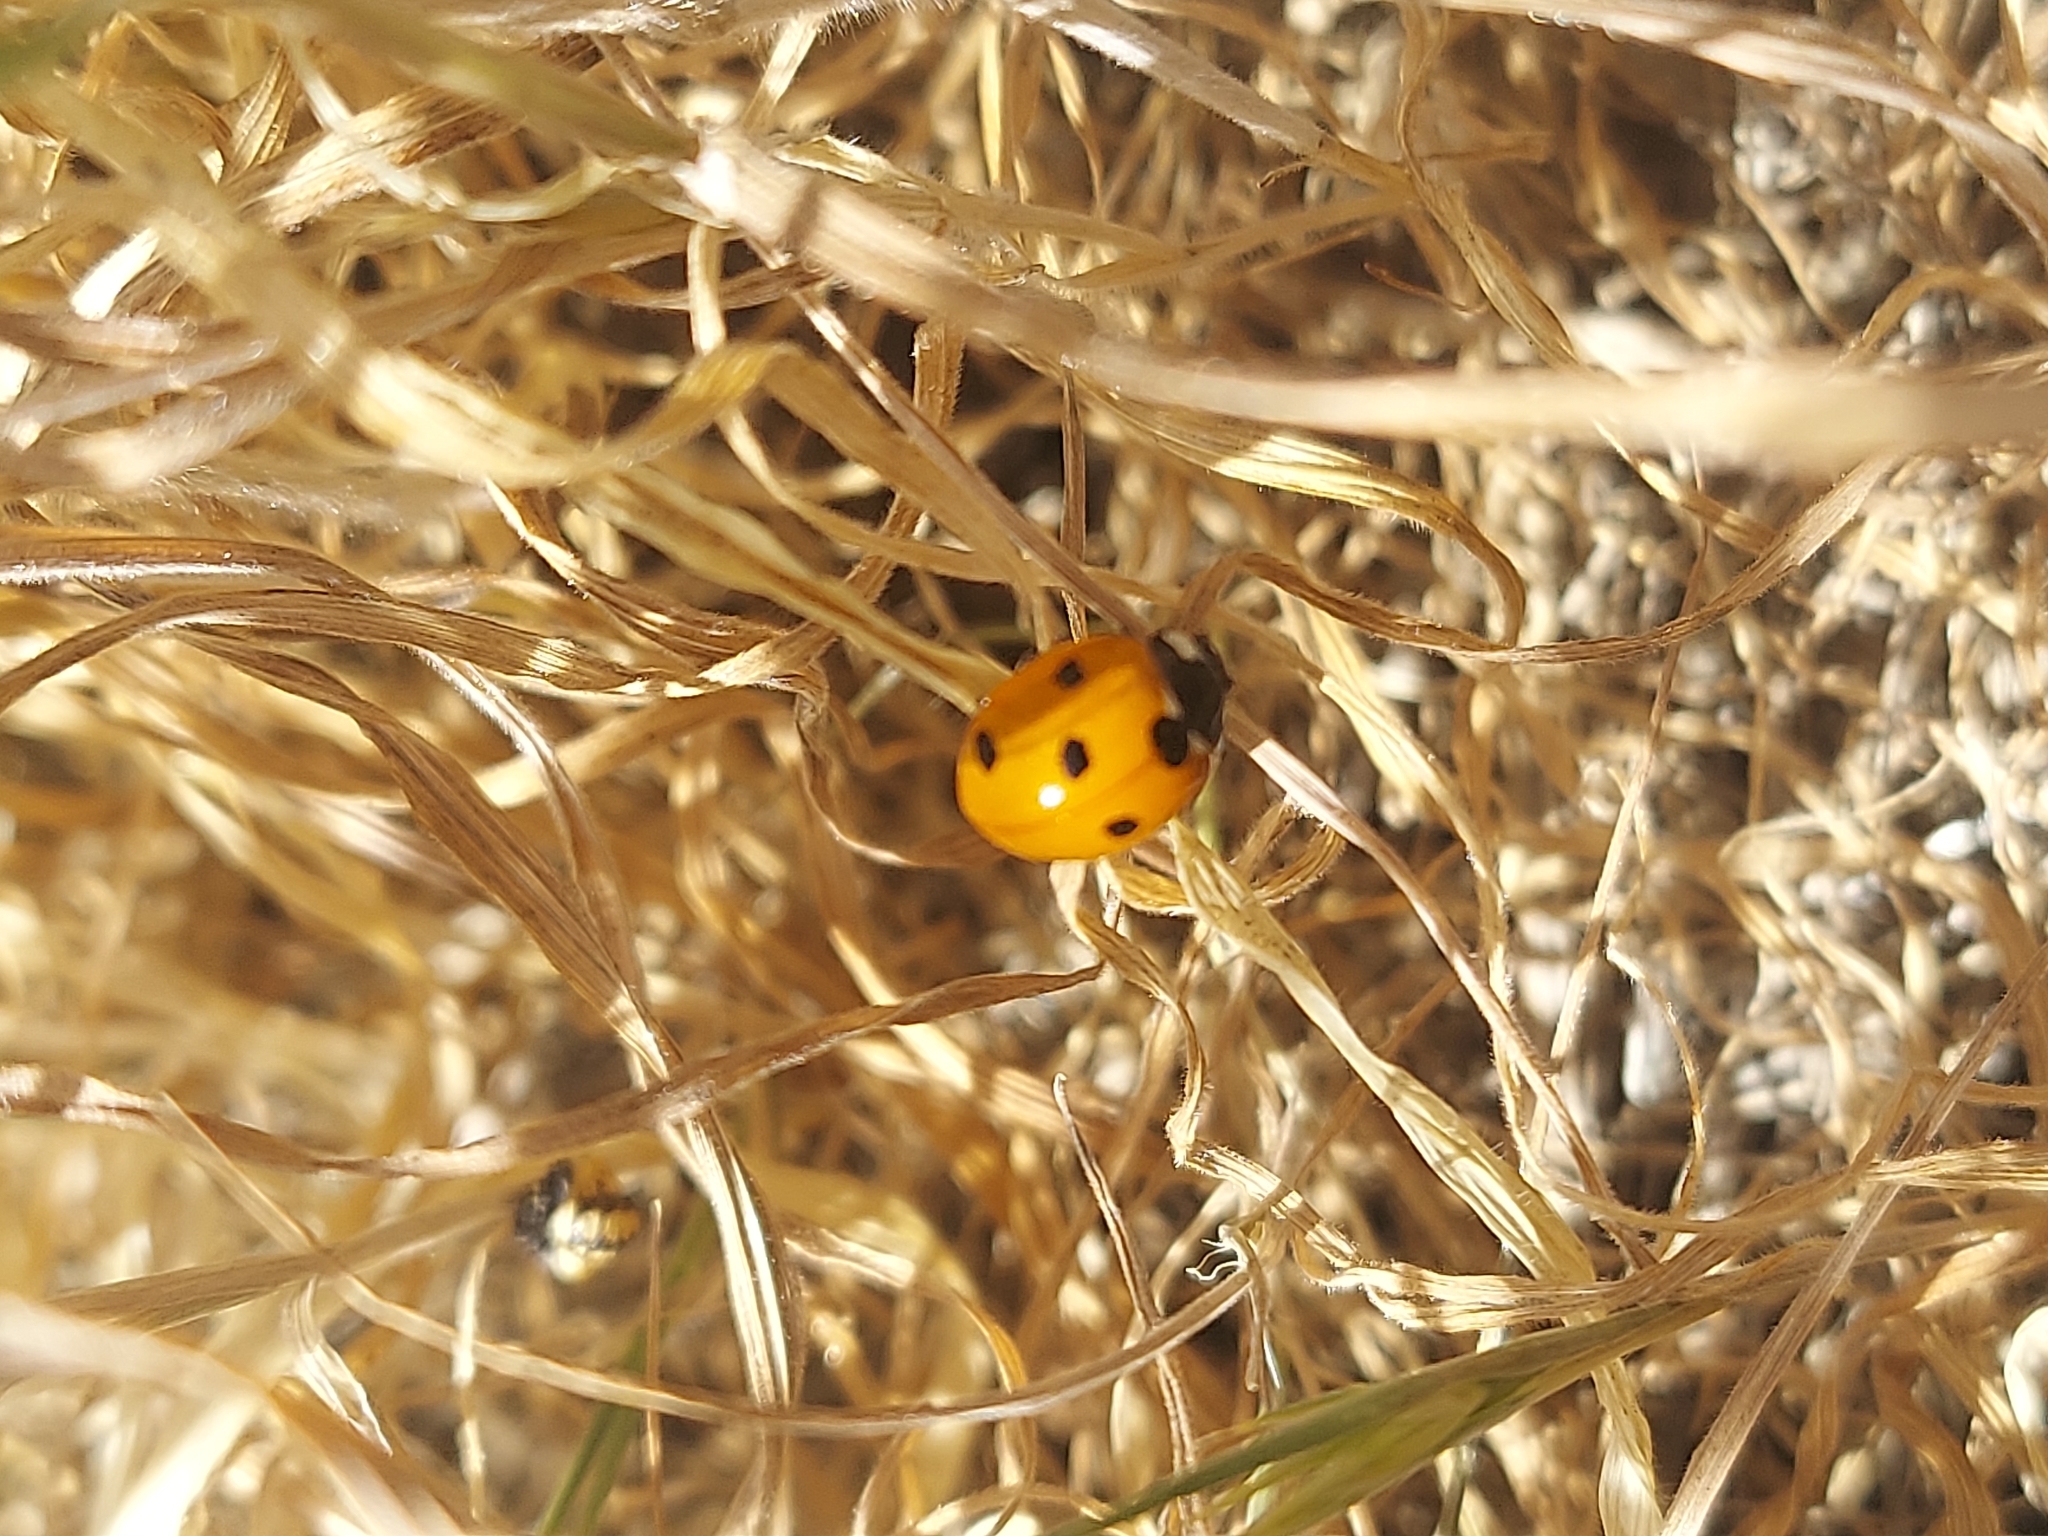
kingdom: Animalia
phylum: Arthropoda
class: Insecta
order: Coleoptera
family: Coccinellidae
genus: Coccinella
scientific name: Coccinella septempunctata
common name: Sevenspotted lady beetle
